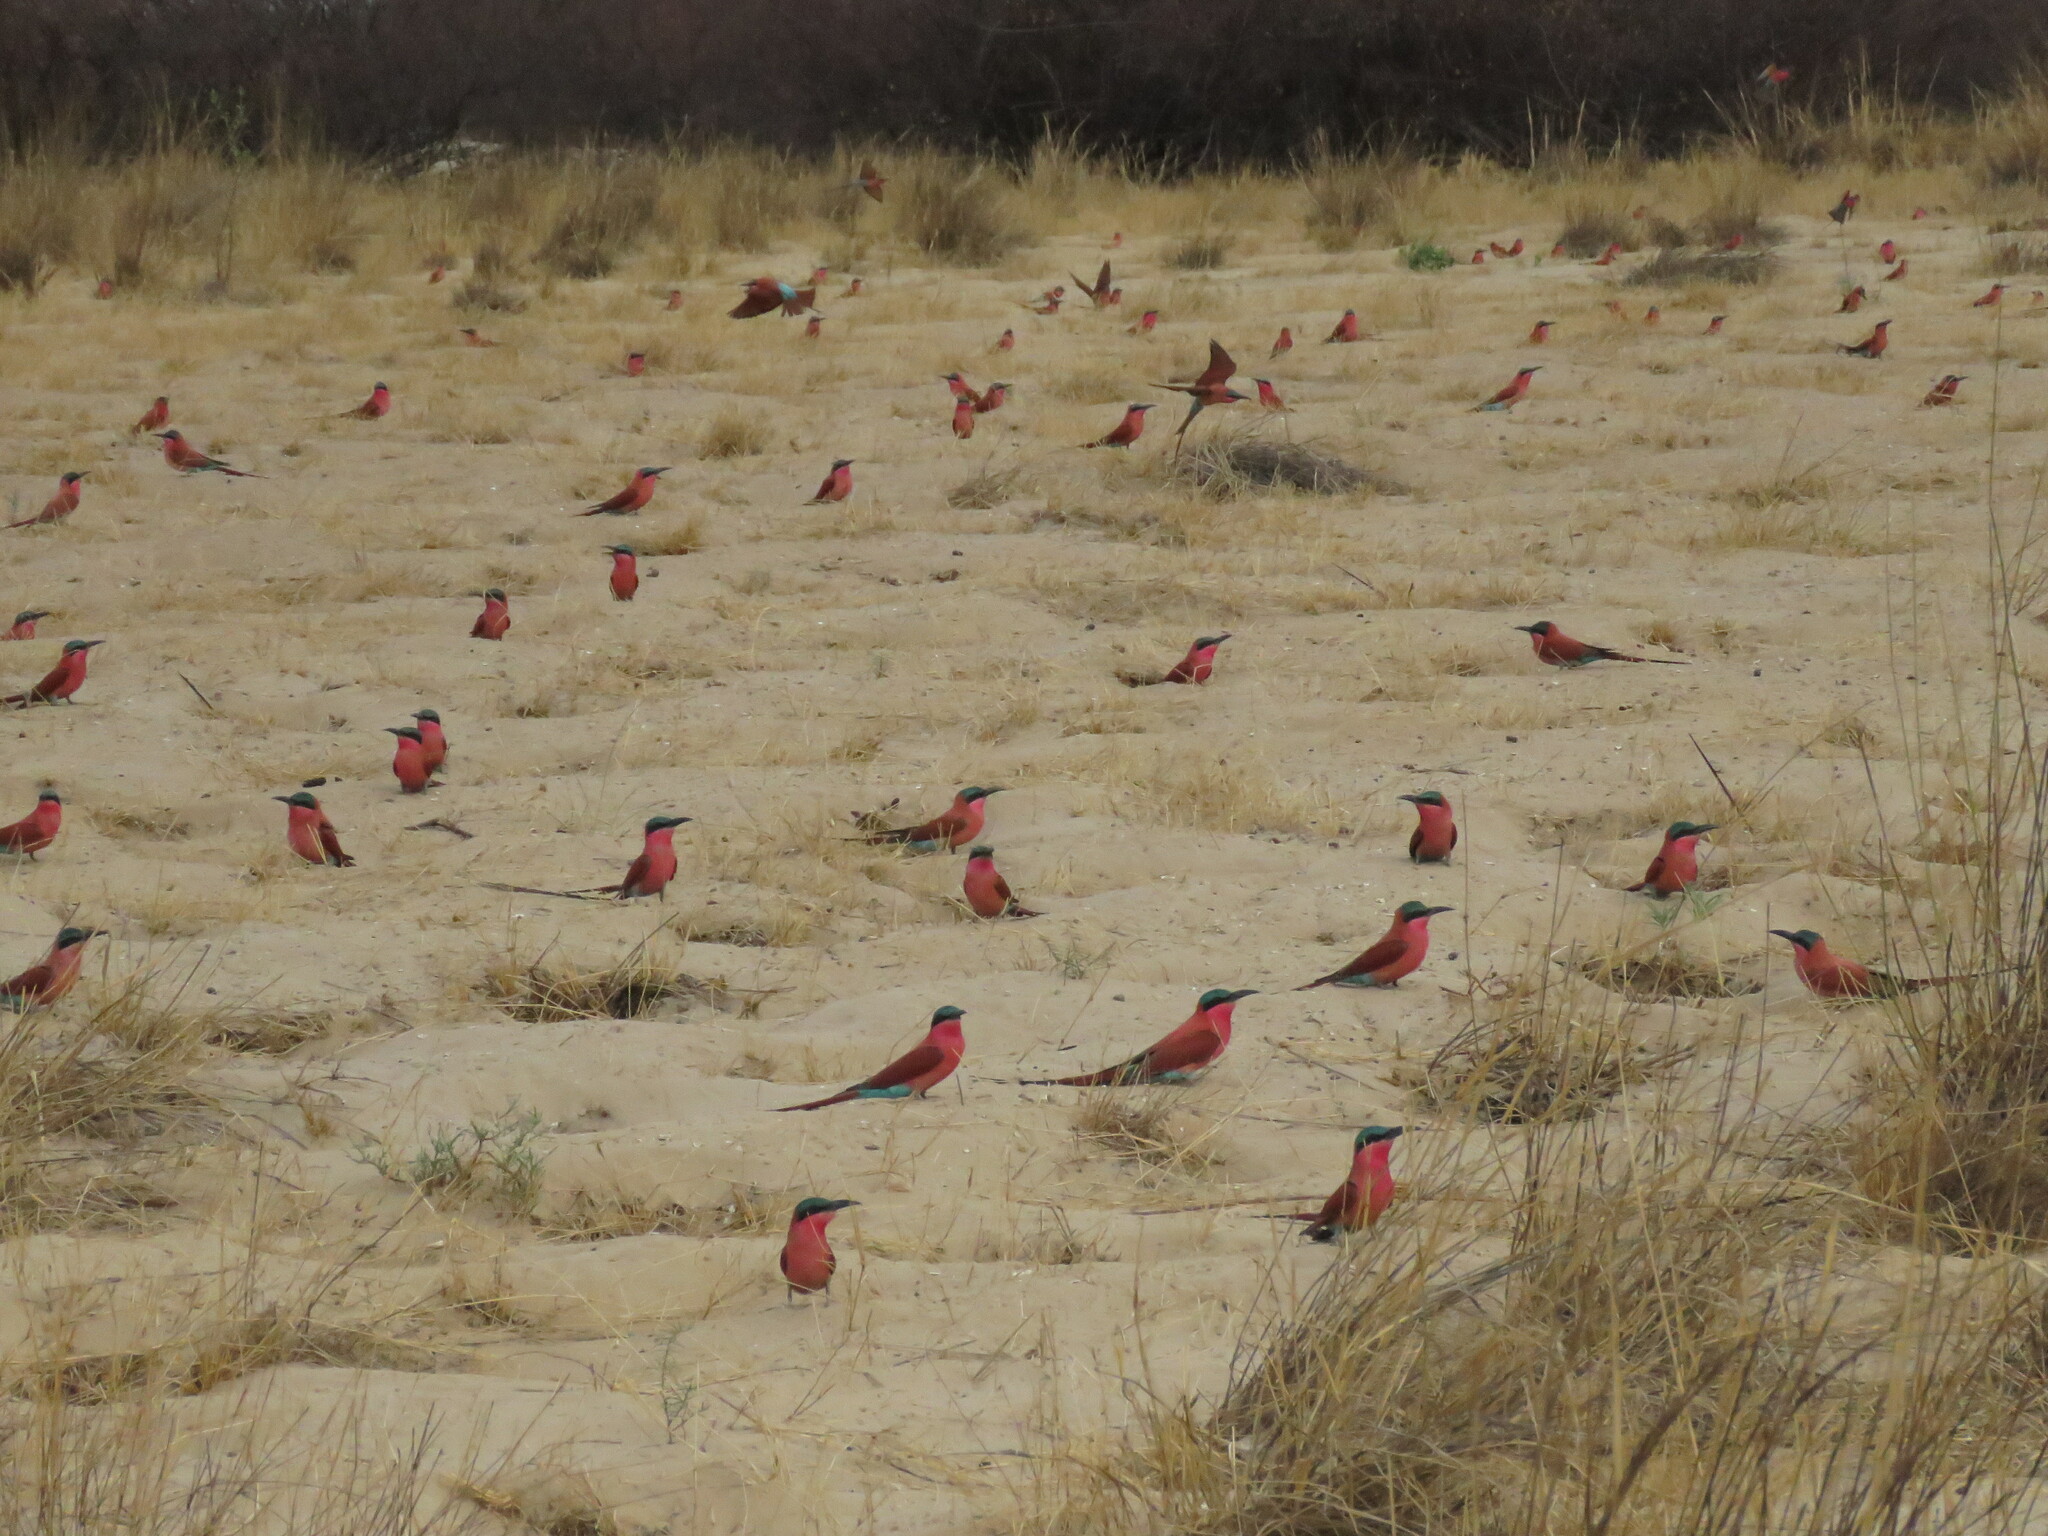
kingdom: Animalia
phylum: Chordata
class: Aves
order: Coraciiformes
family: Meropidae
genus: Merops
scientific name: Merops nubicoides
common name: Southern carmine bee-eater
